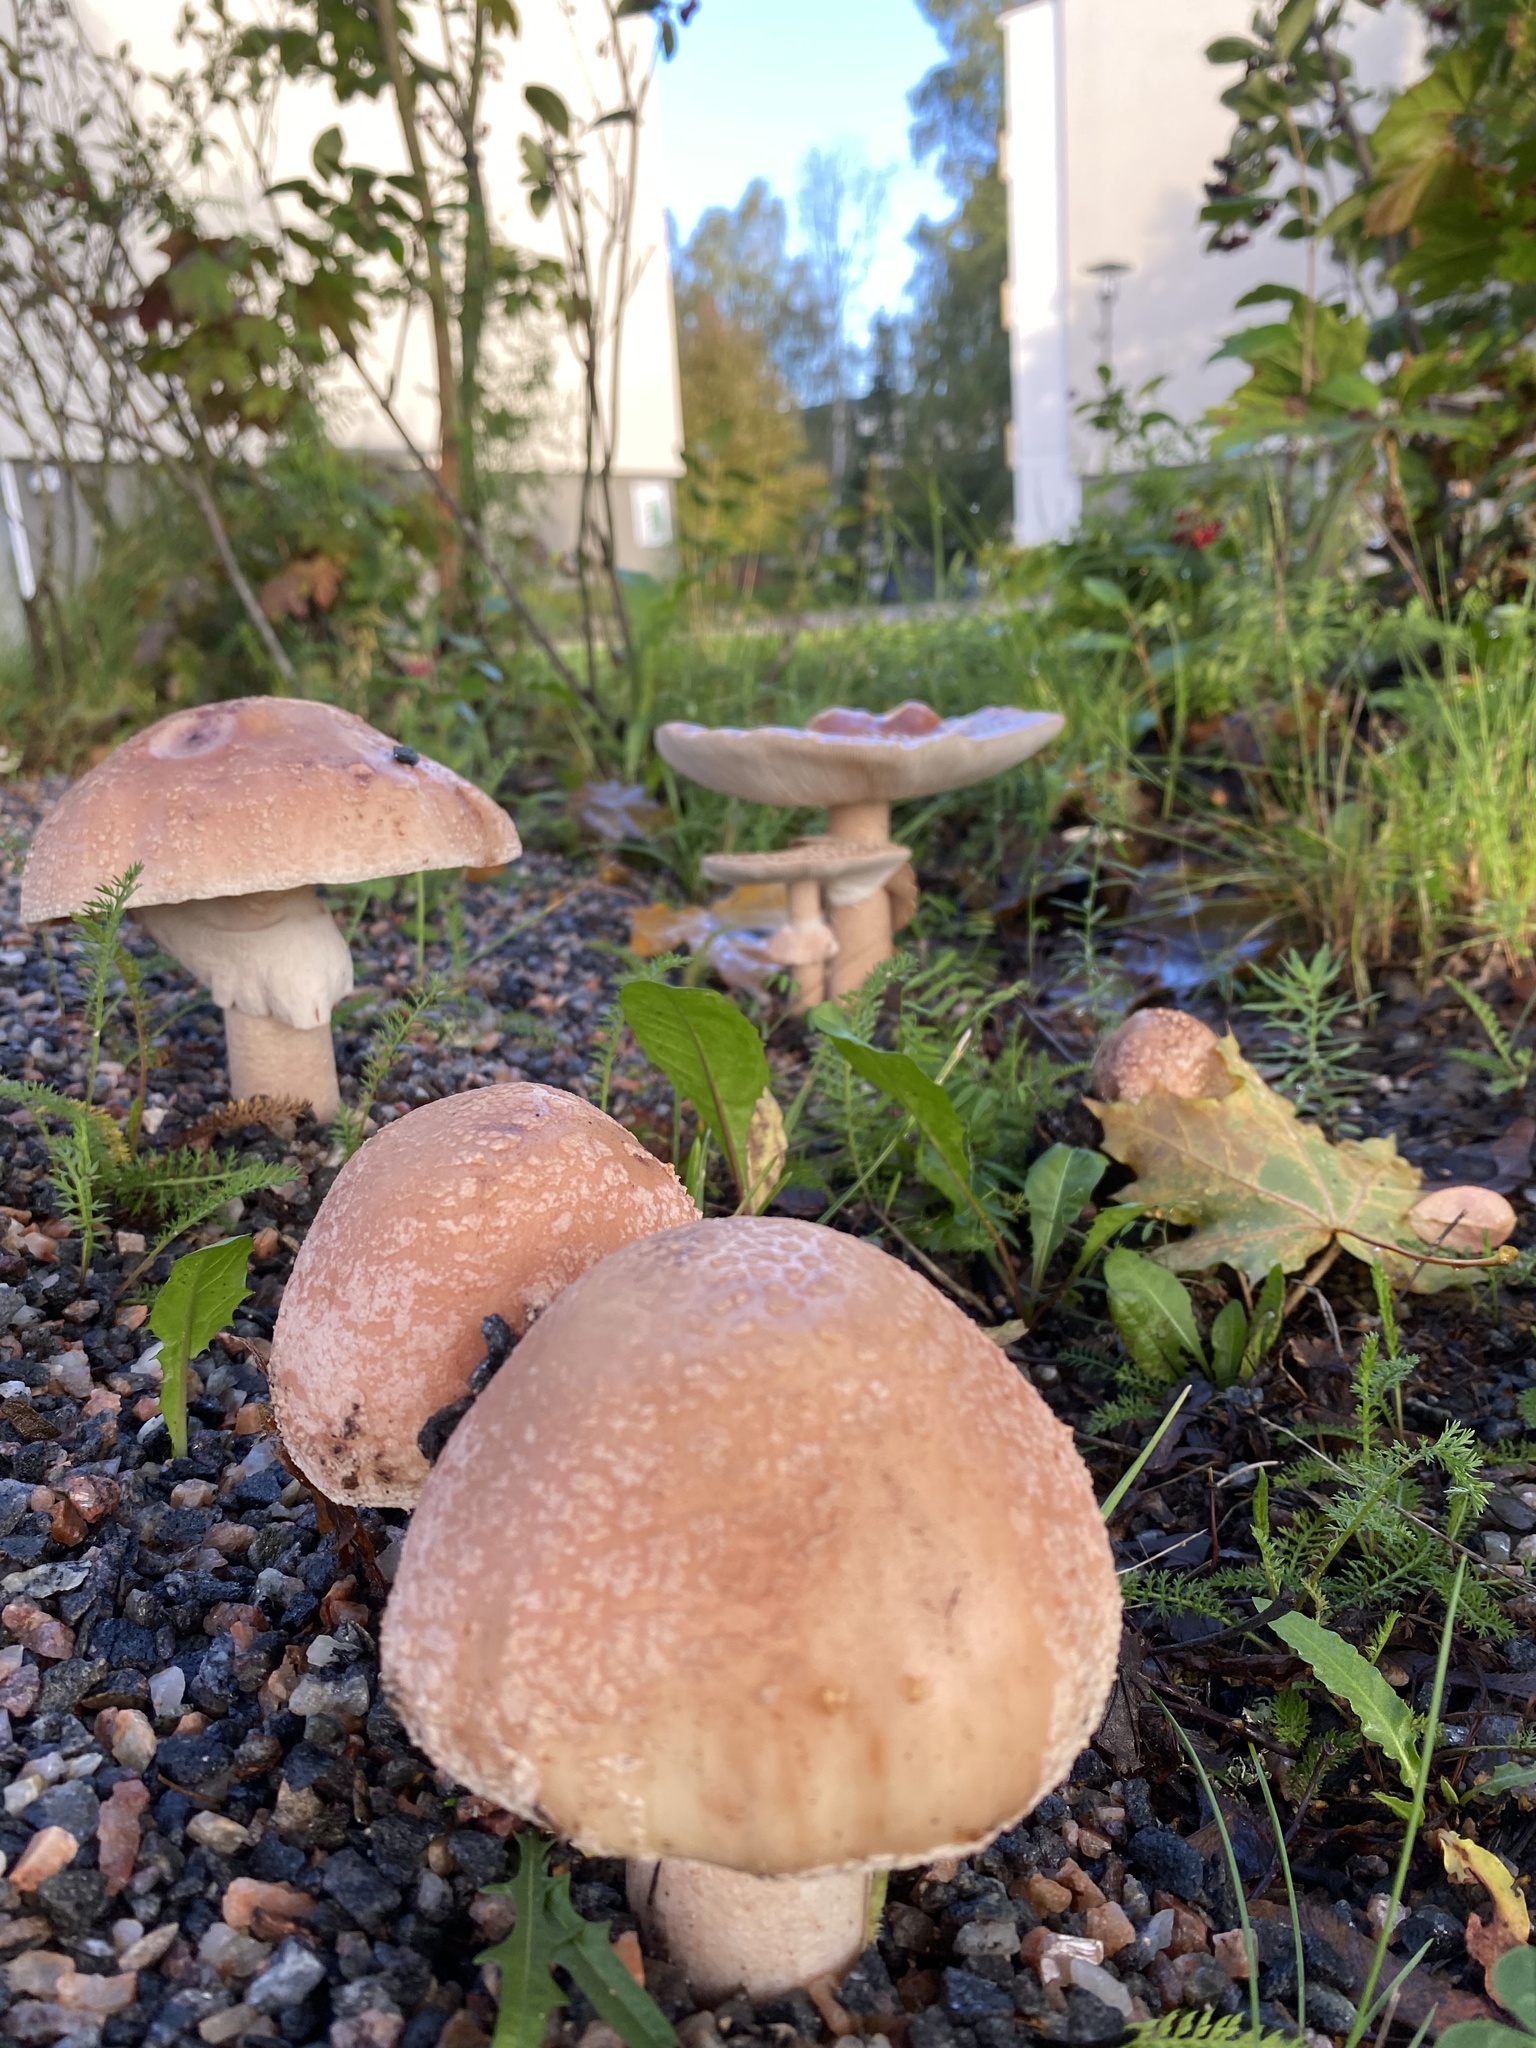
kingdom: Fungi
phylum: Basidiomycota
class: Agaricomycetes
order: Agaricales
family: Amanitaceae
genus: Amanita
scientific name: Amanita rubescens
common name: Blusher
